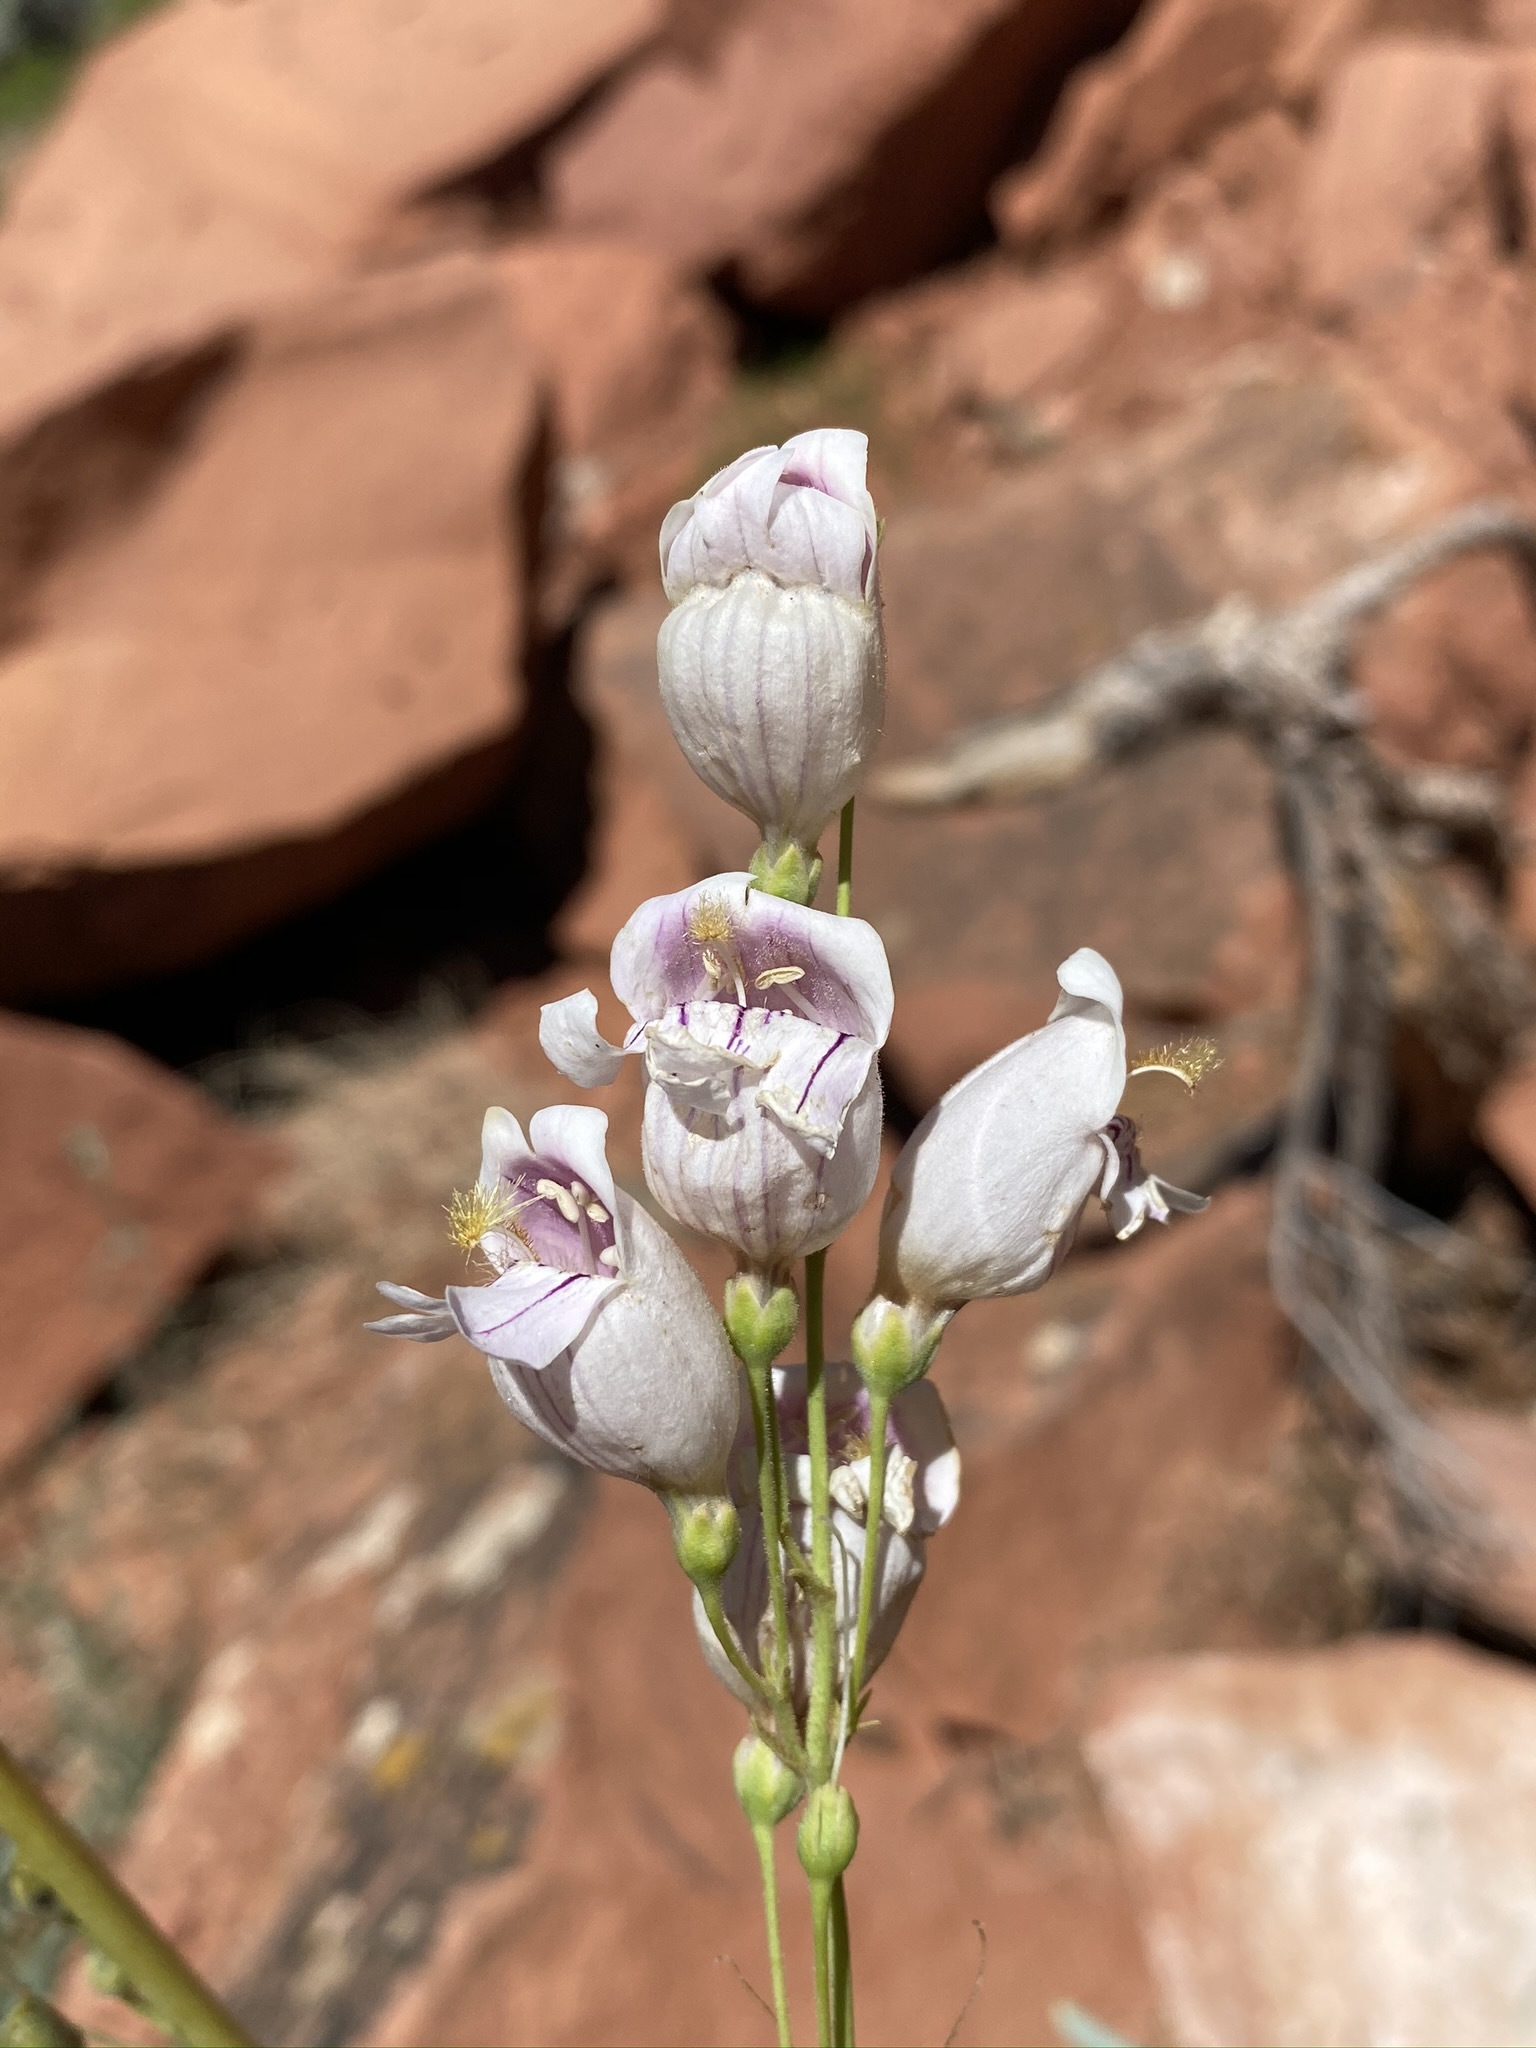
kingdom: Plantae
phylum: Tracheophyta
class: Magnoliopsida
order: Lamiales
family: Plantaginaceae
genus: Penstemon
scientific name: Penstemon palmeri
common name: Palmer penstemon
